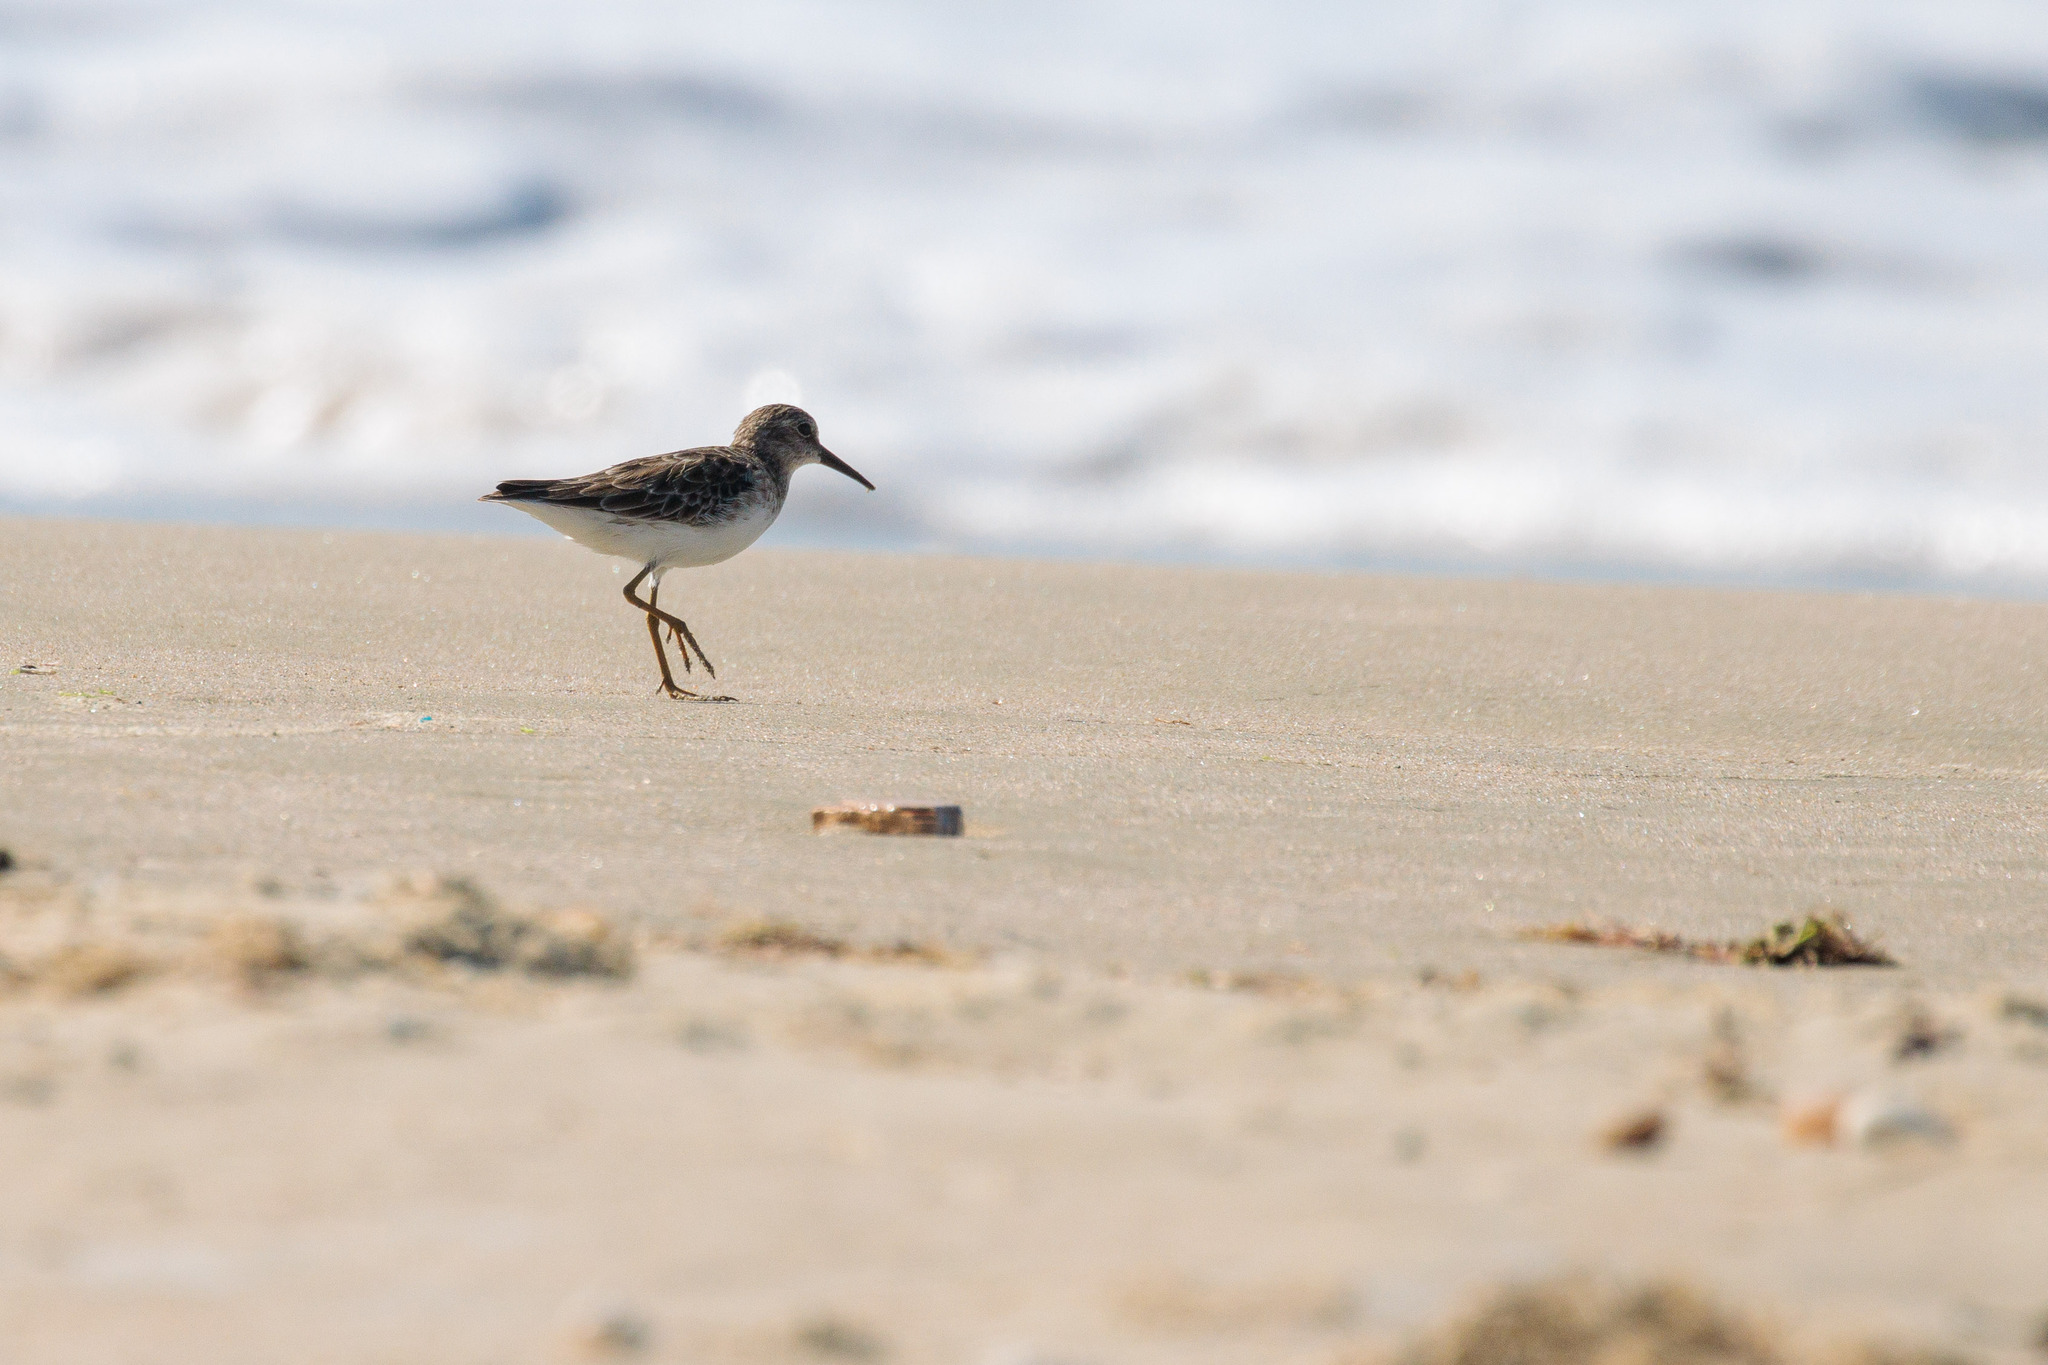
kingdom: Animalia
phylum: Chordata
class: Aves
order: Charadriiformes
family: Scolopacidae
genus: Calidris
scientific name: Calidris minutilla
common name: Least sandpiper
